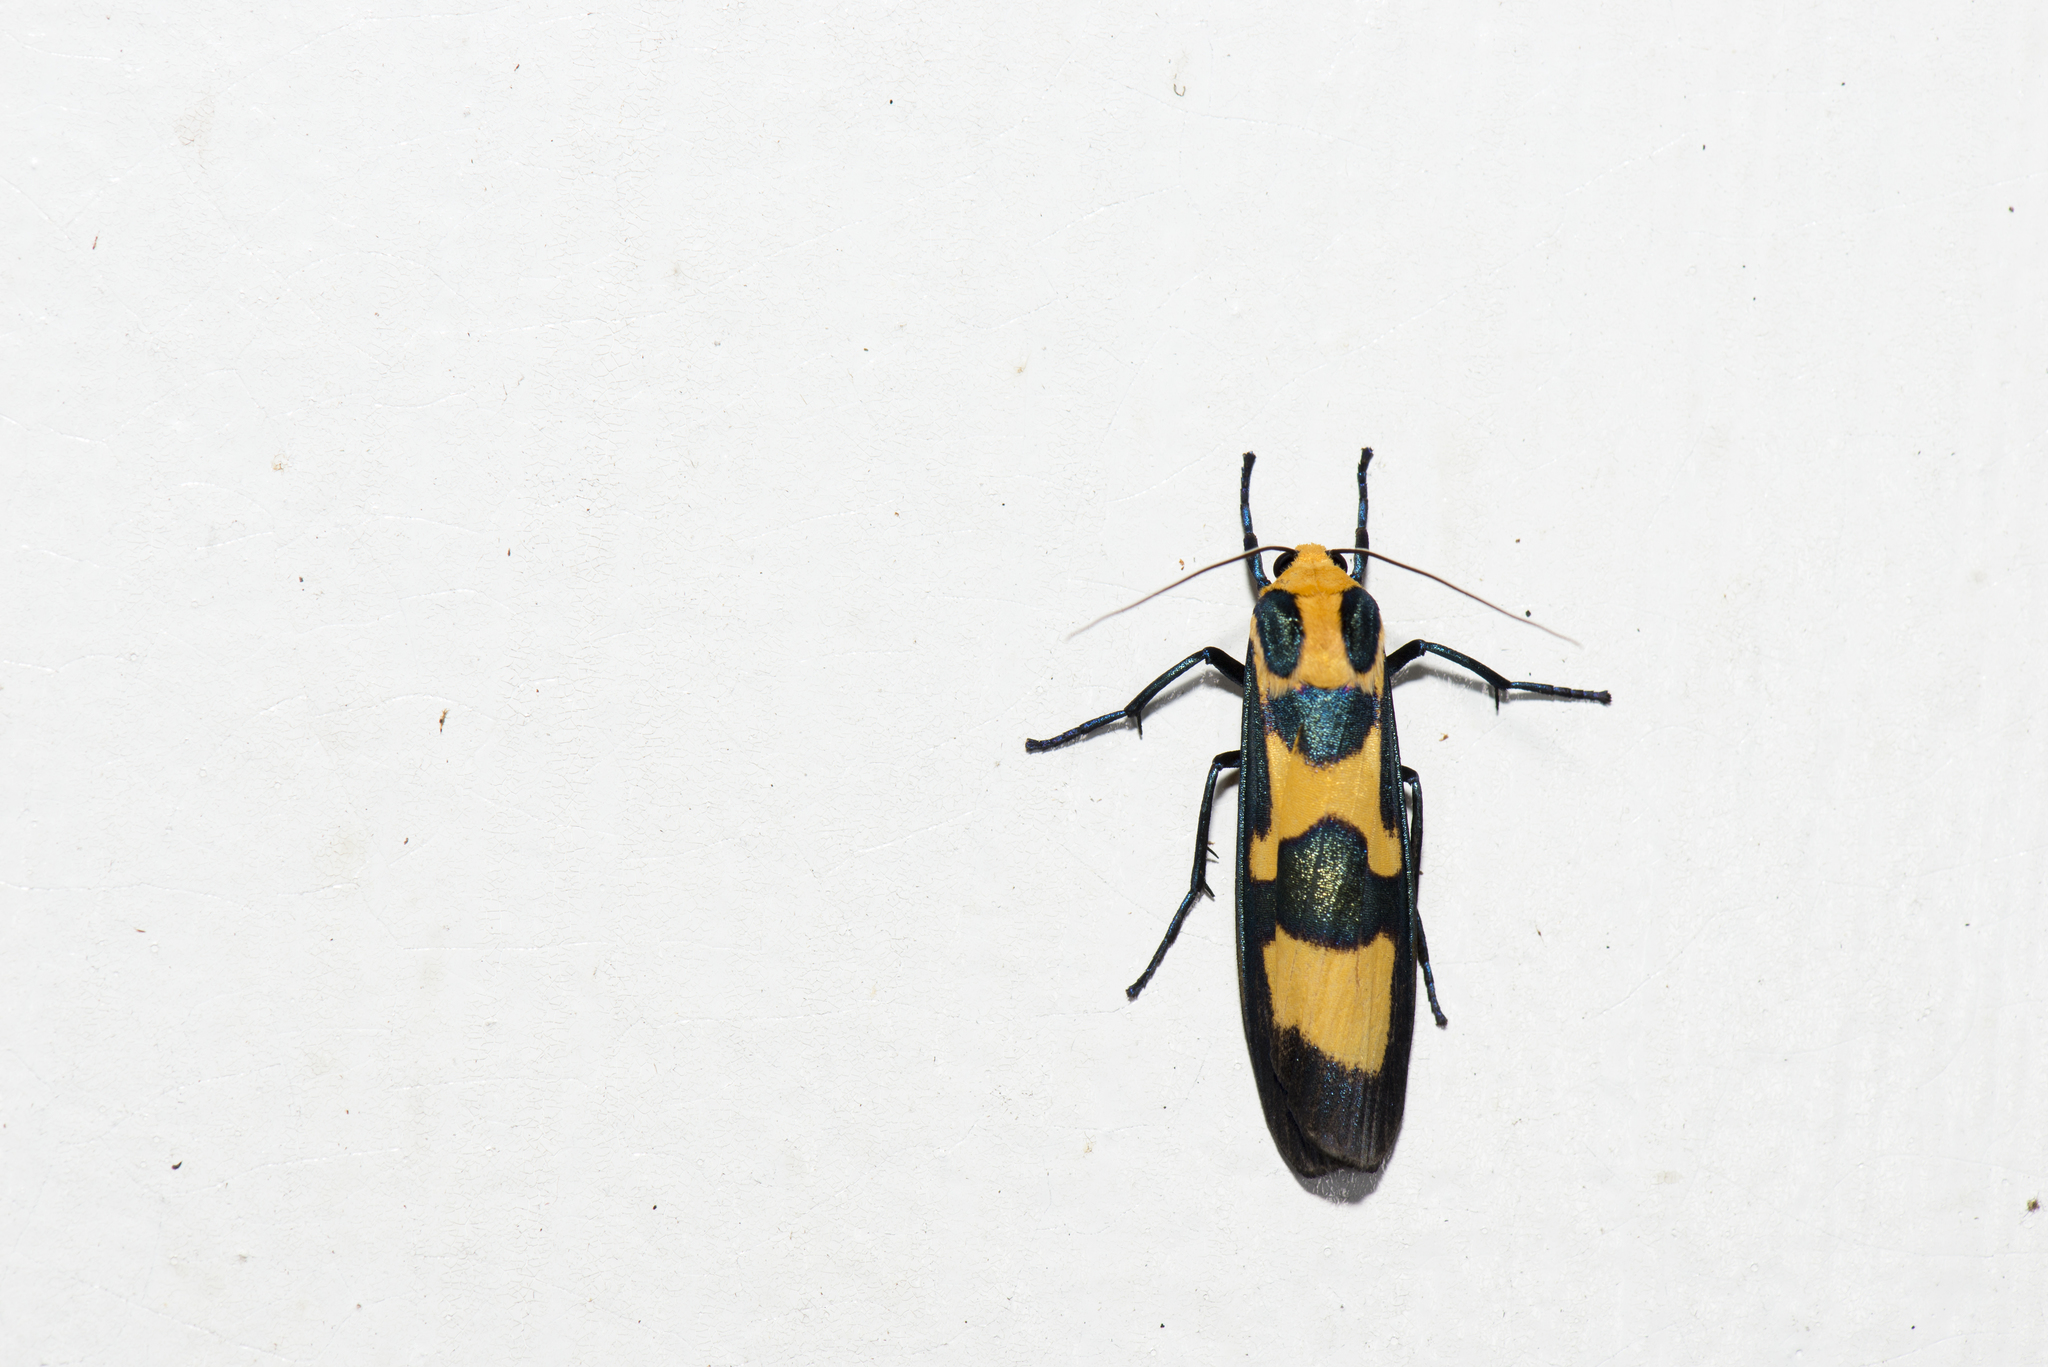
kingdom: Animalia
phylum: Arthropoda
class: Insecta
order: Lepidoptera
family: Erebidae
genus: Chrysaeglia
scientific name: Chrysaeglia magnifica
